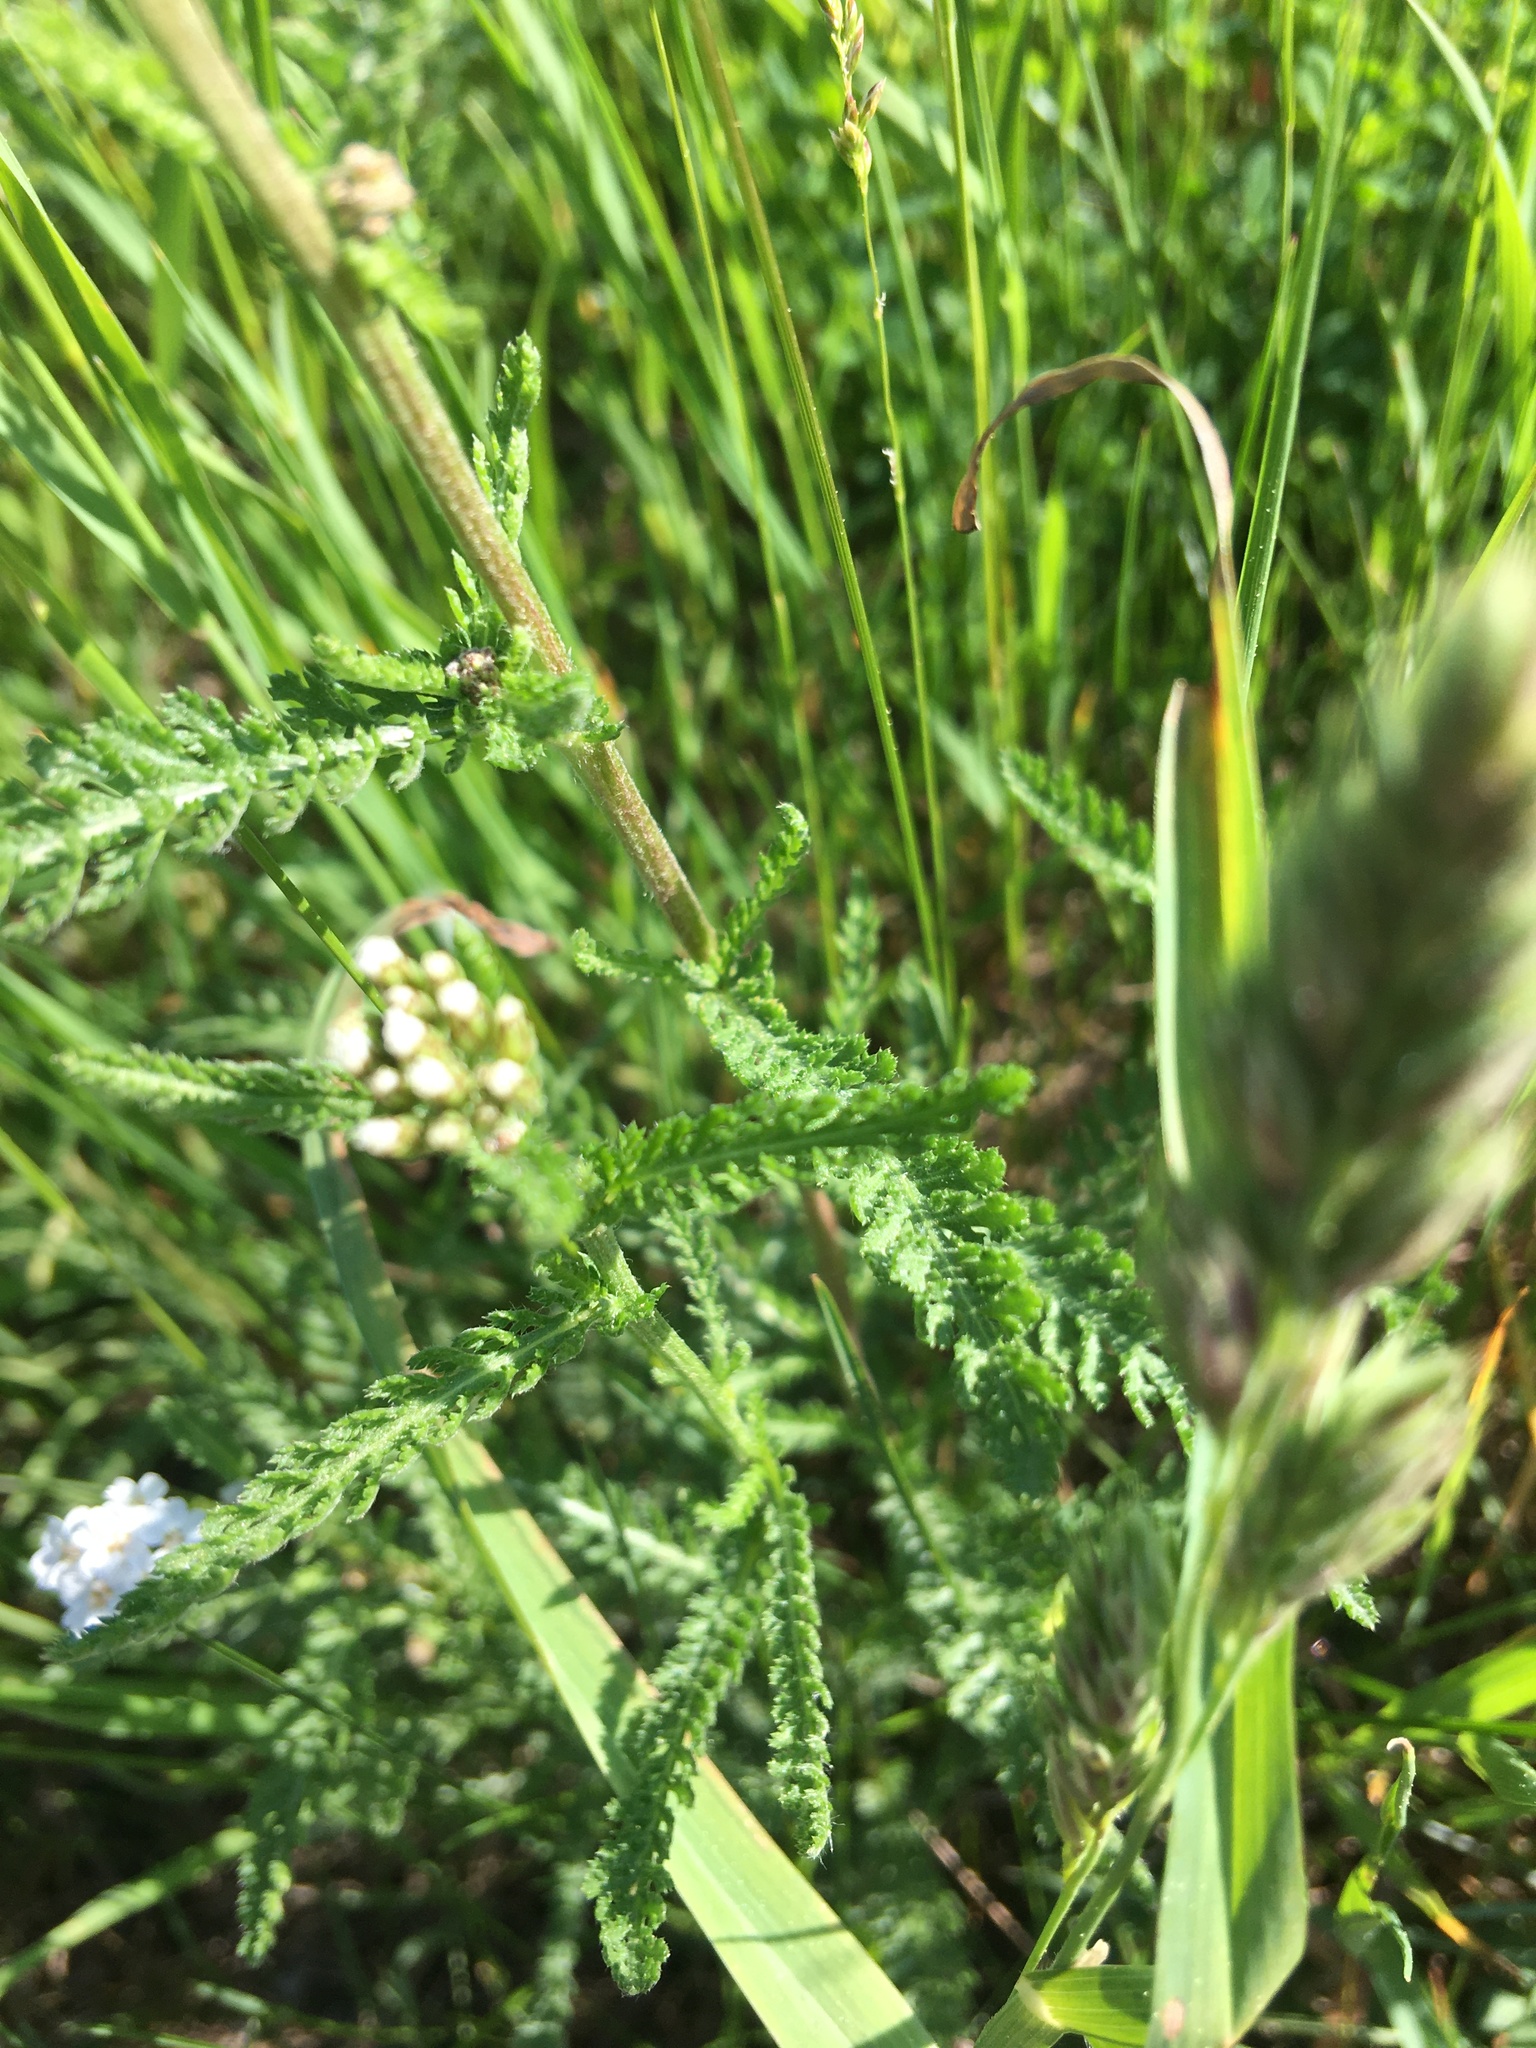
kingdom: Plantae
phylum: Tracheophyta
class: Magnoliopsida
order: Asterales
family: Asteraceae
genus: Achillea
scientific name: Achillea millefolium
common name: Yarrow
